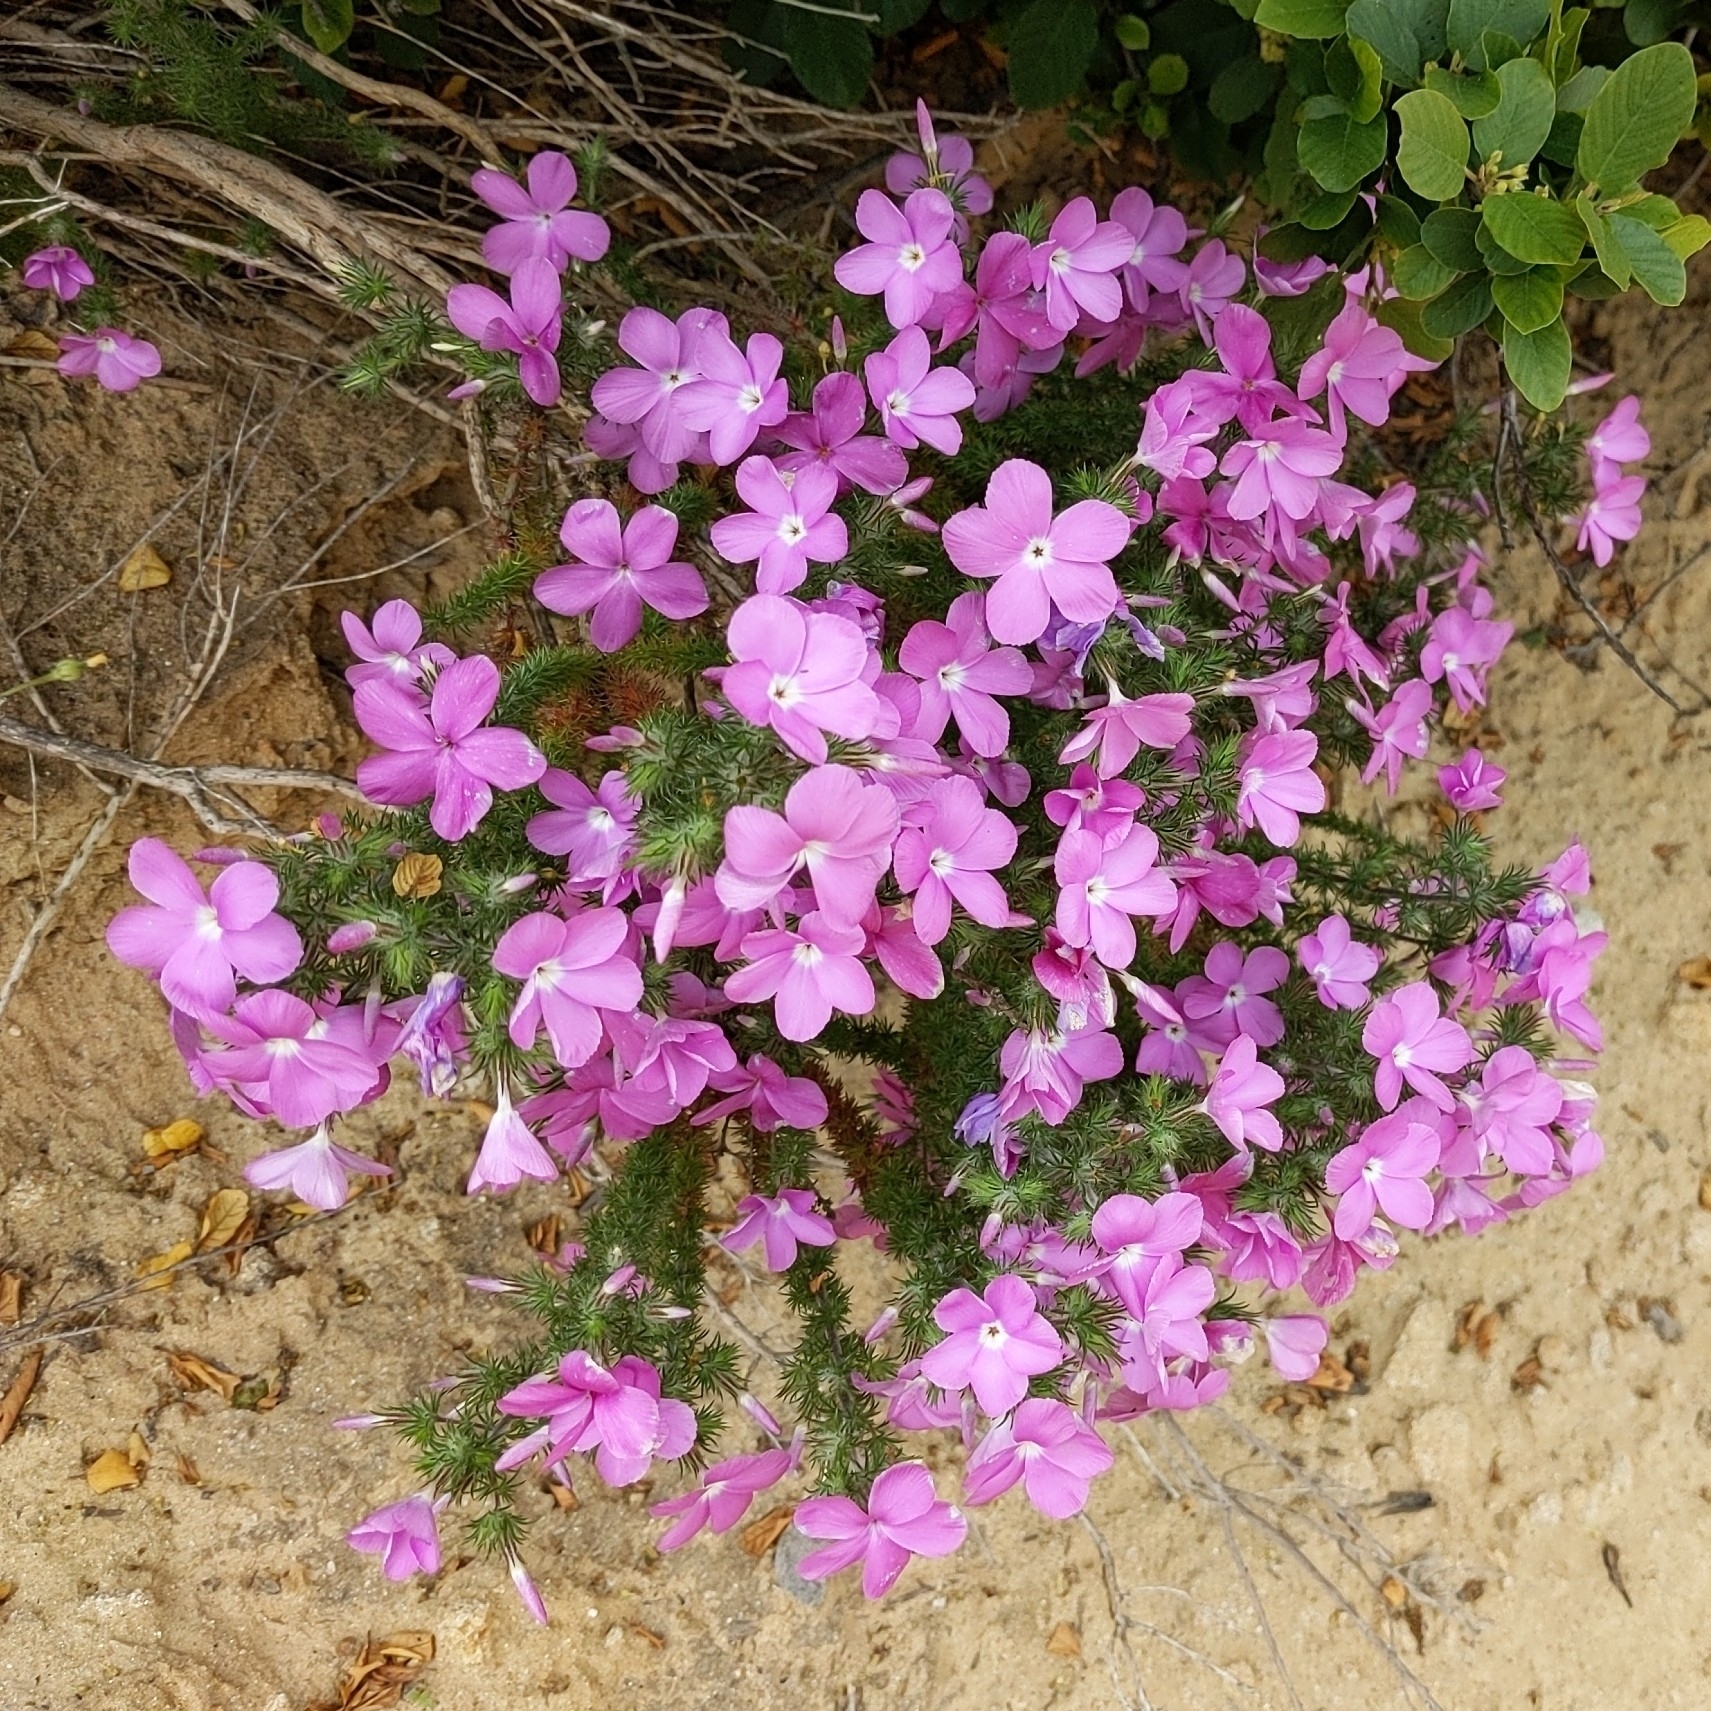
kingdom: Plantae
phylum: Tracheophyta
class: Magnoliopsida
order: Ericales
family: Polemoniaceae
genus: Linanthus
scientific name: Linanthus californicus
